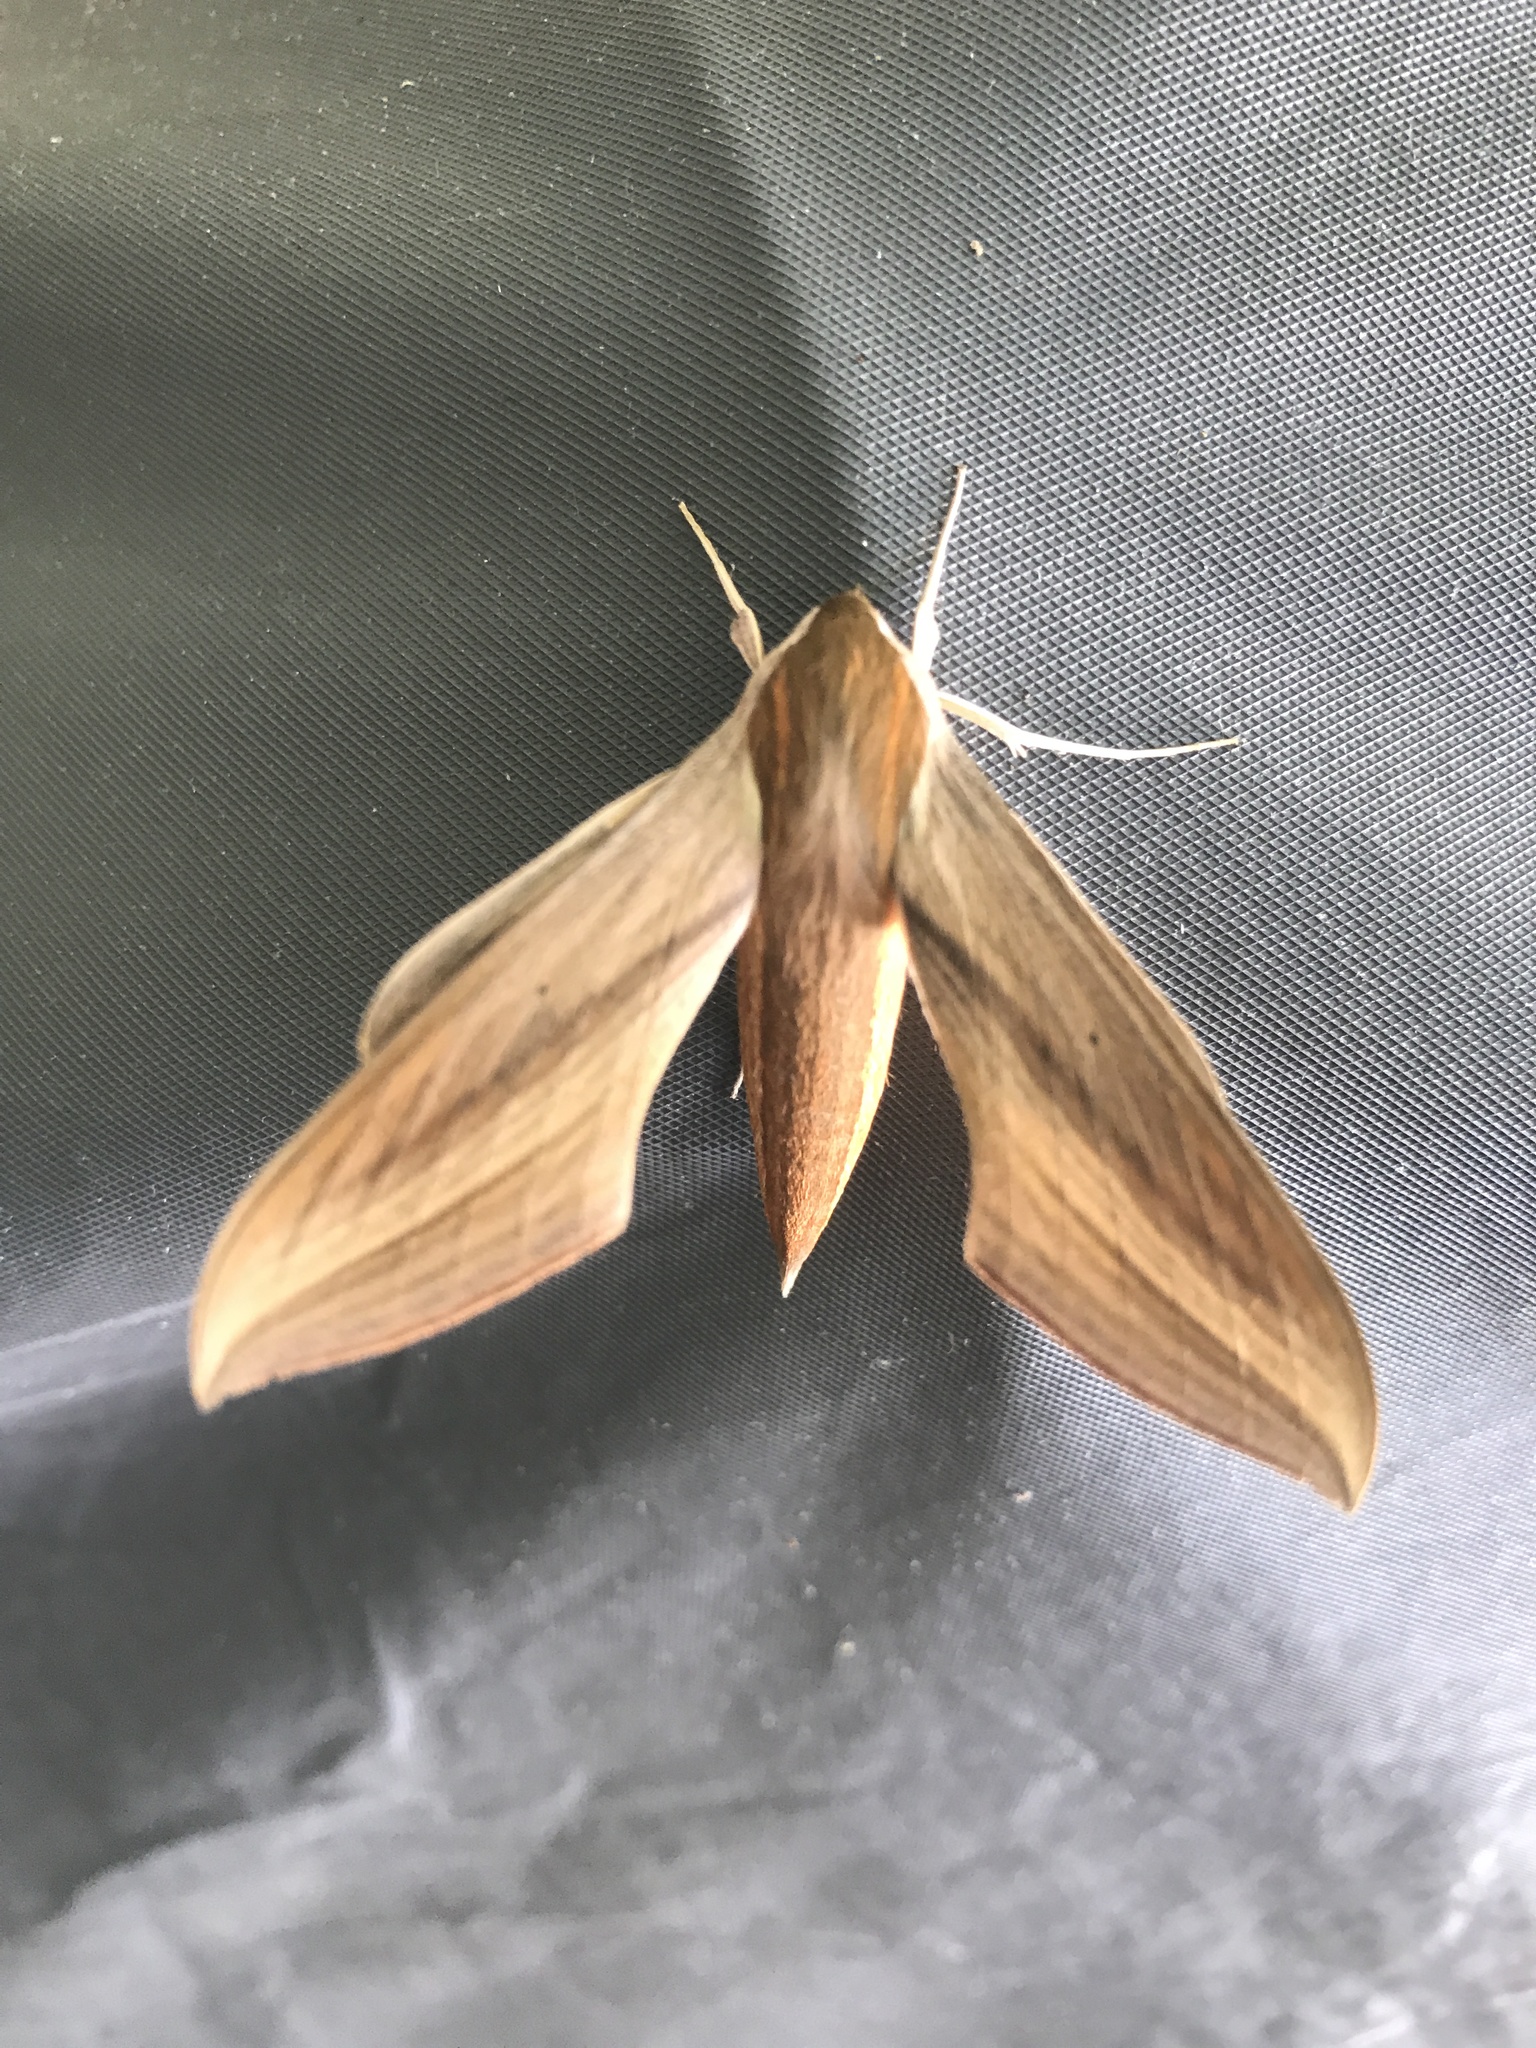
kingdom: Animalia
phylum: Arthropoda
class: Insecta
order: Lepidoptera
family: Sphingidae
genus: Xylophanes
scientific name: Xylophanes tersa
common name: Tersa sphinx
